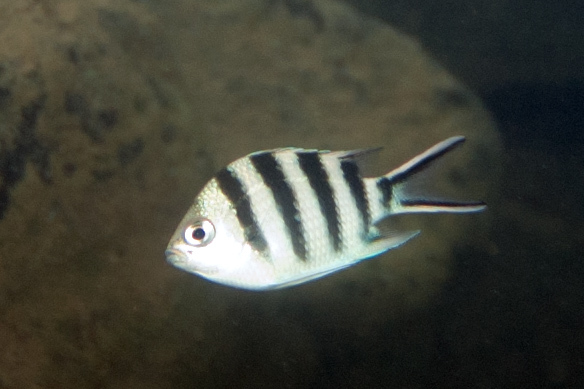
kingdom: Animalia
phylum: Chordata
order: Perciformes
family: Pomacentridae
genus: Abudefduf
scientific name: Abudefduf sexfasciatus
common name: Scissortail sergeant
